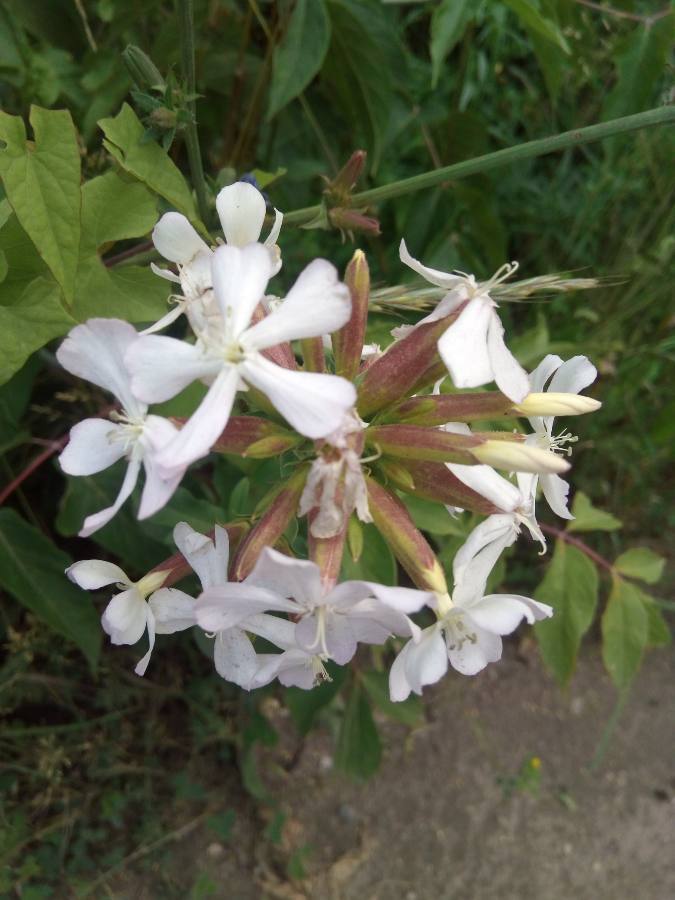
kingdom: Plantae
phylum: Tracheophyta
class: Magnoliopsida
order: Caryophyllales
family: Caryophyllaceae
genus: Saponaria
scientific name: Saponaria officinalis
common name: Soapwort
